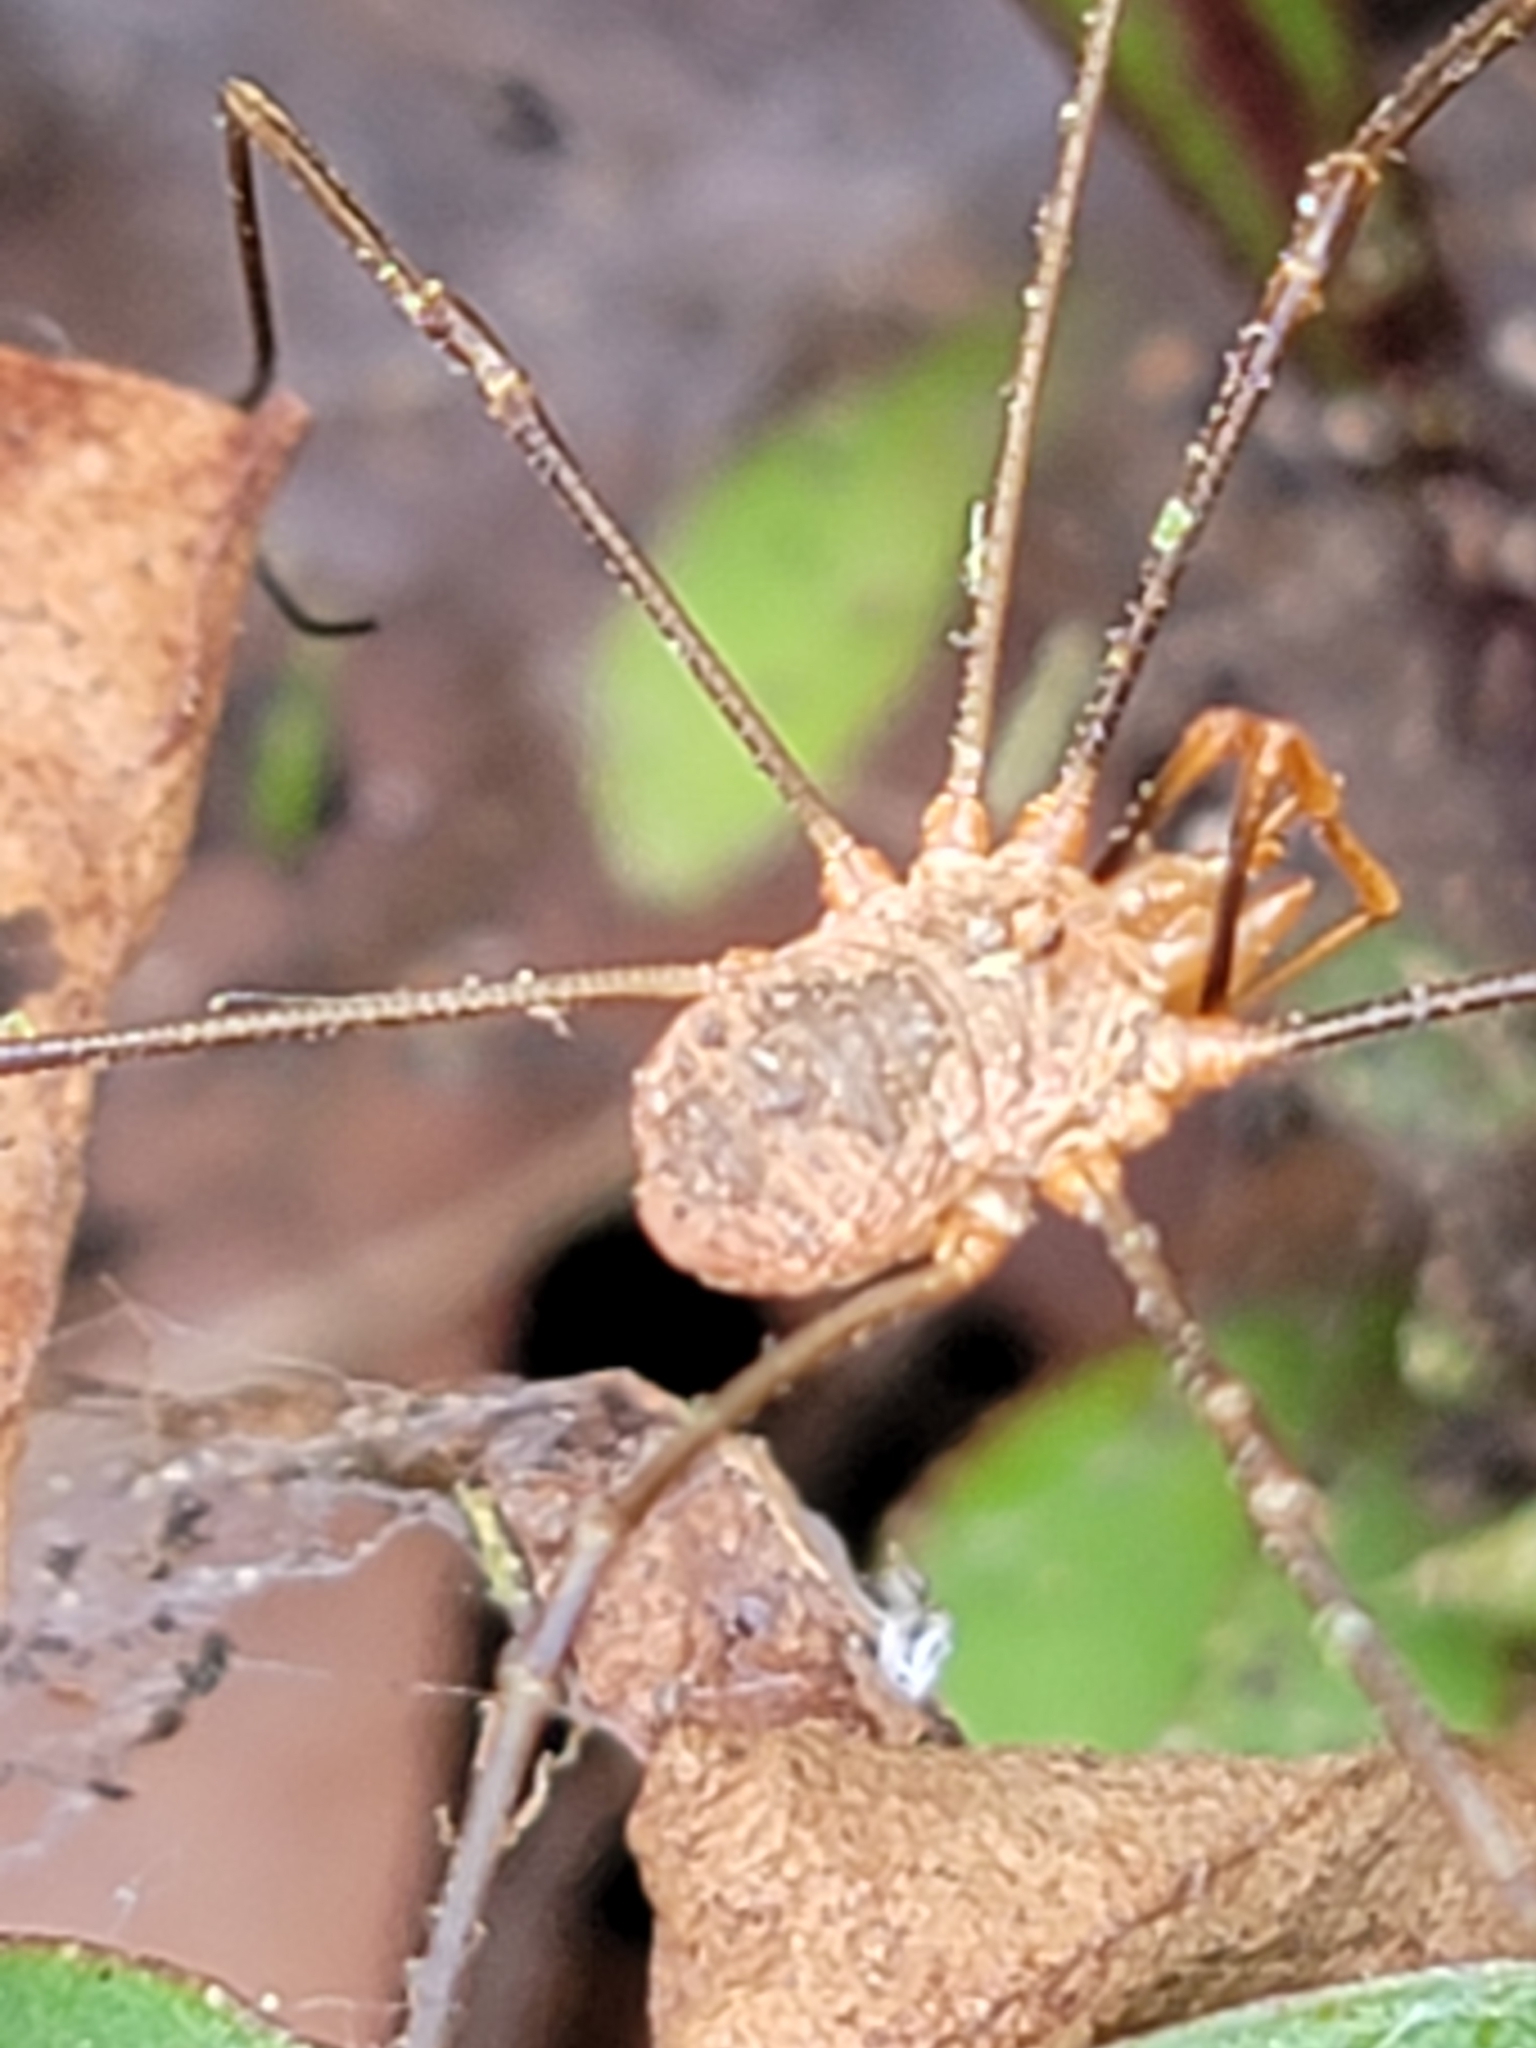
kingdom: Animalia
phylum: Arthropoda
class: Arachnida
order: Opiliones
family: Phalangiidae
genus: Phalangium
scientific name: Phalangium opilio
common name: Daddy longleg
